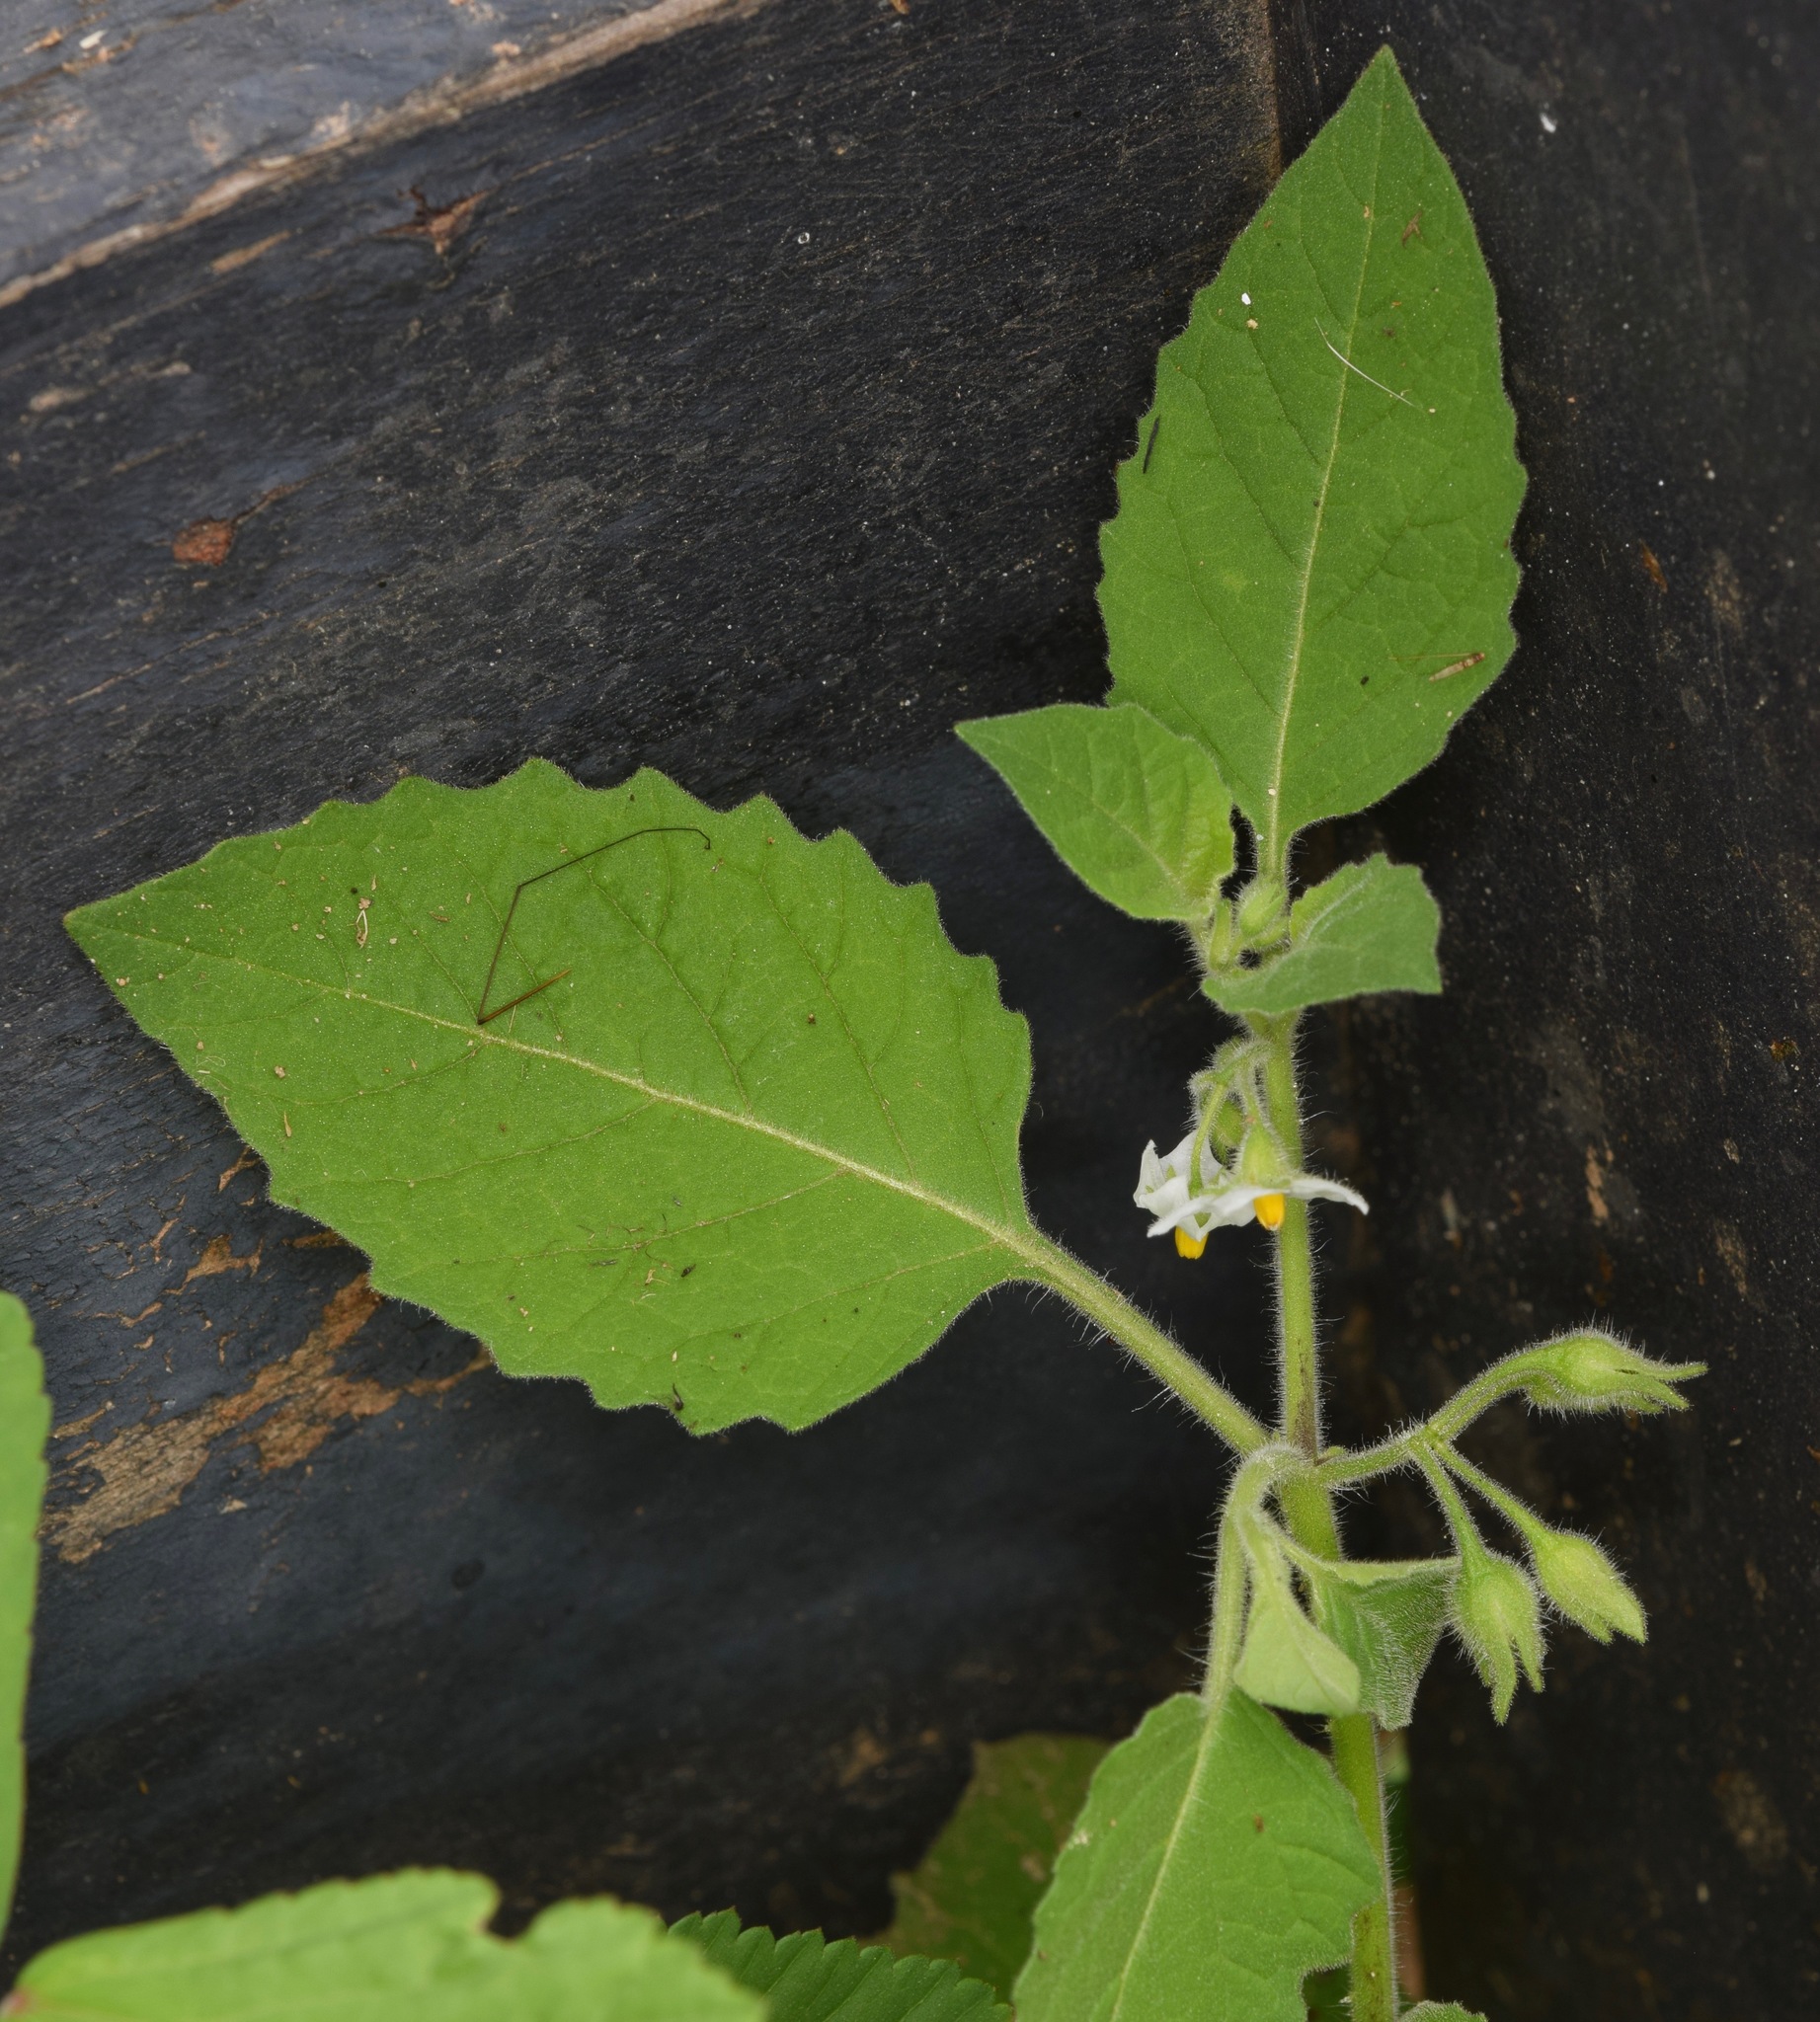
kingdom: Plantae
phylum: Tracheophyta
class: Magnoliopsida
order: Solanales
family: Solanaceae
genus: Solanum
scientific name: Solanum sarrachoides
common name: Leafy-fruited nightshade
